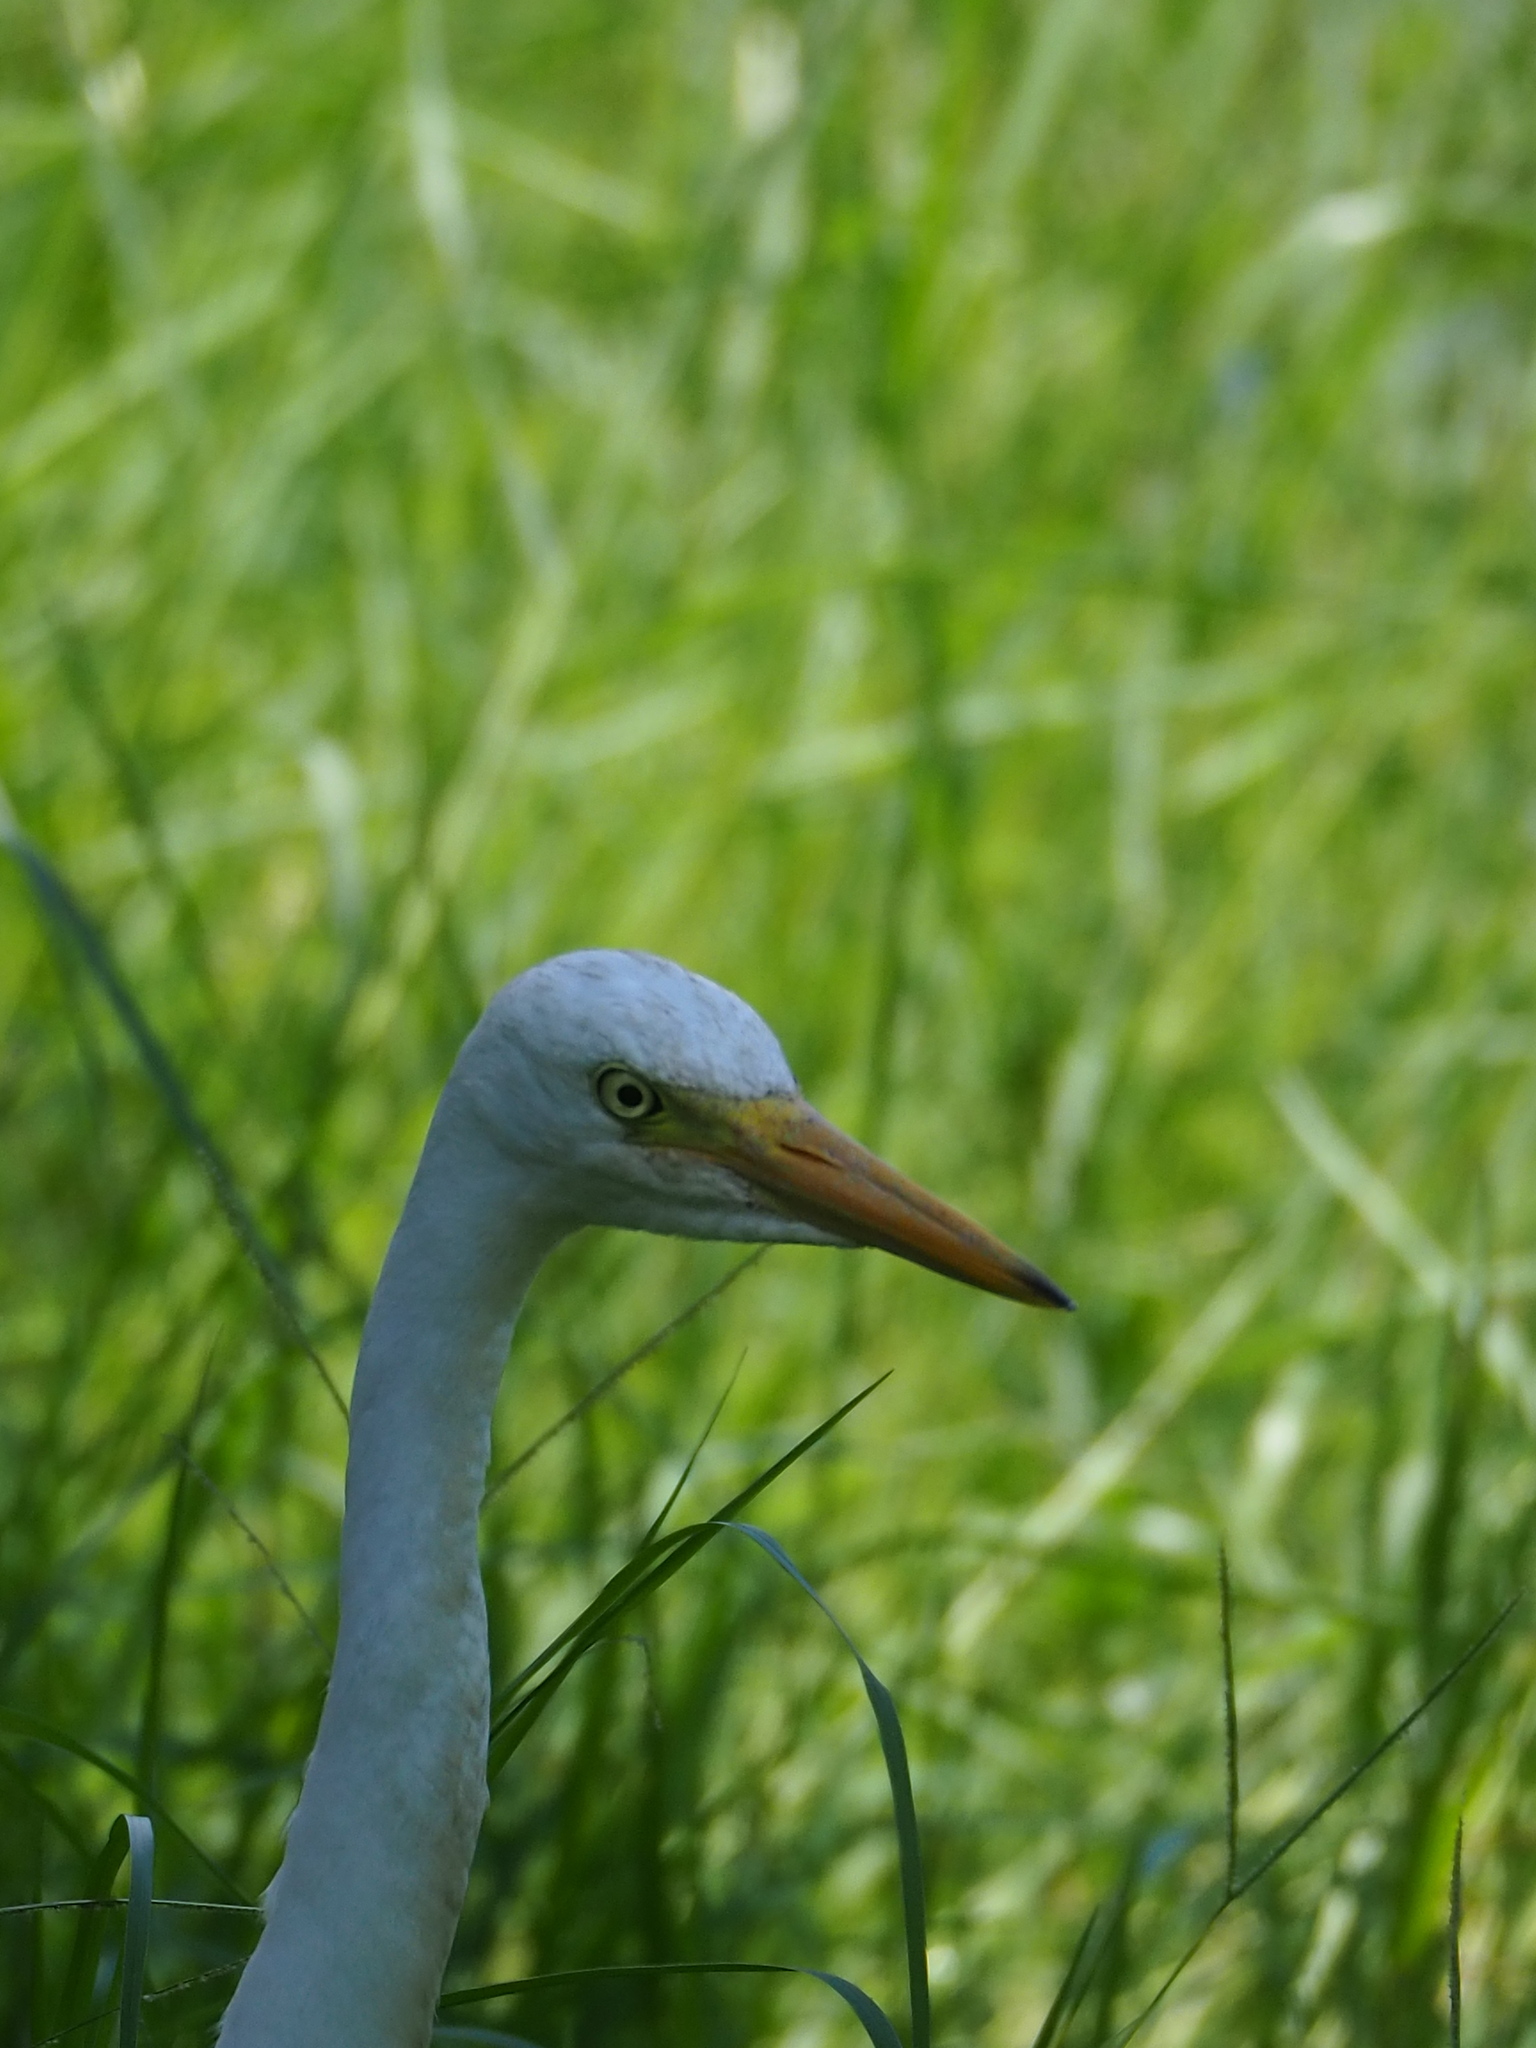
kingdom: Animalia
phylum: Chordata
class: Aves
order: Pelecaniformes
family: Ardeidae
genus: Egretta
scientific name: Egretta intermedia
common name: Intermediate egret
